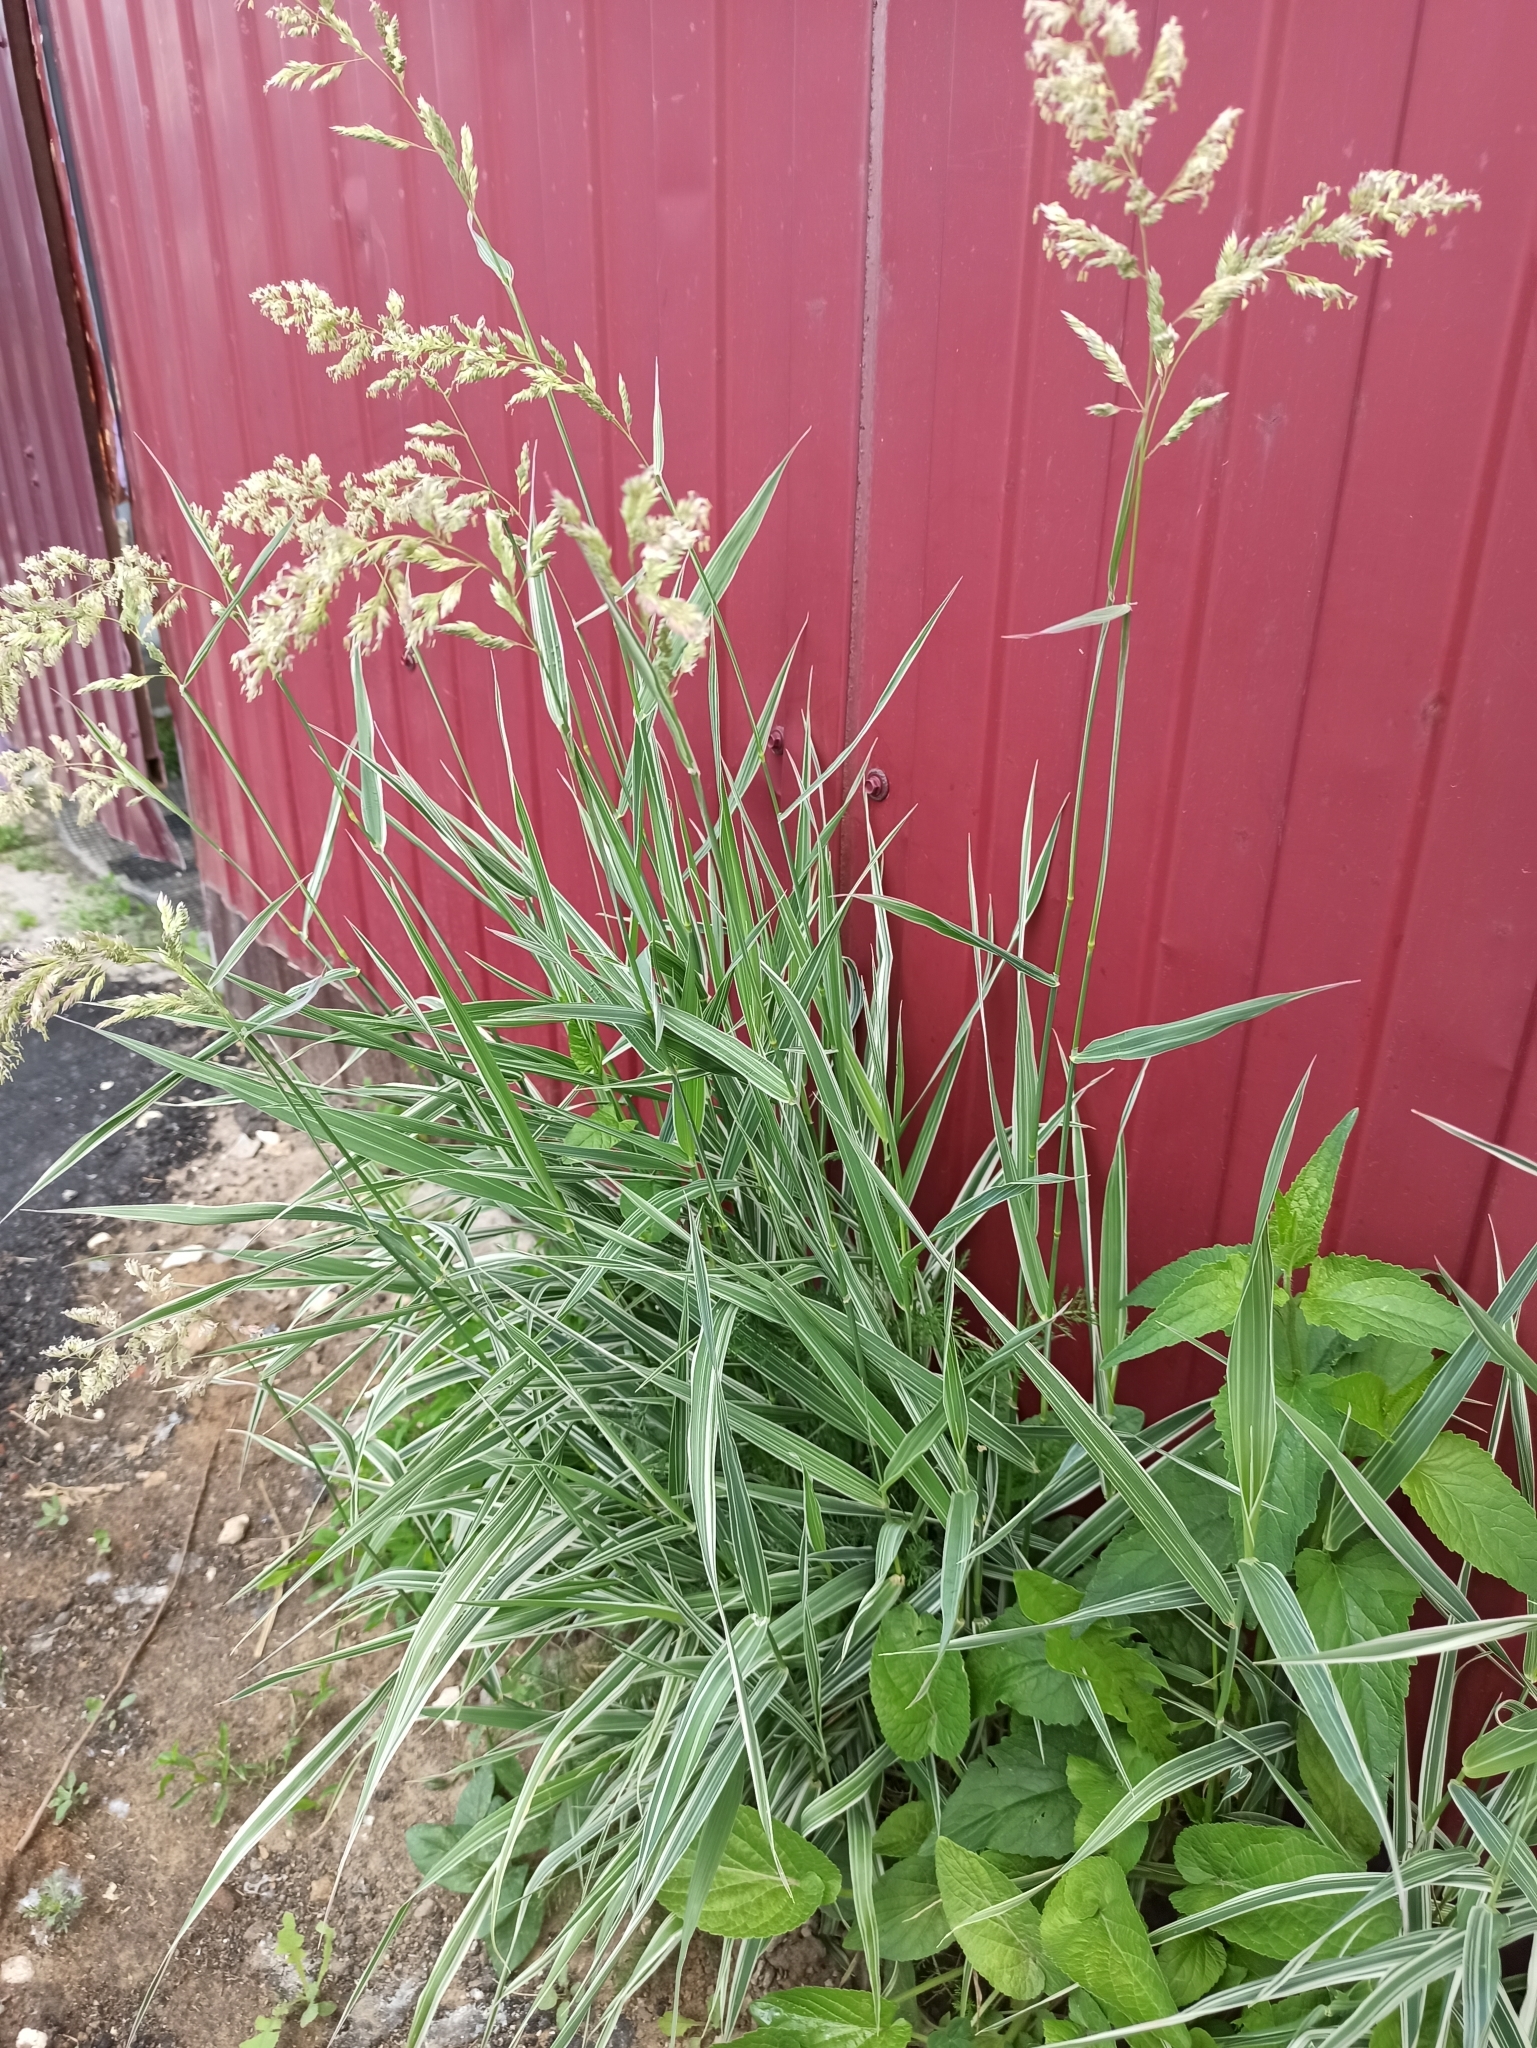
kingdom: Plantae
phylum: Tracheophyta
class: Liliopsida
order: Poales
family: Poaceae
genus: Phalaris
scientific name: Phalaris arundinacea
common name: Reed canary-grass
